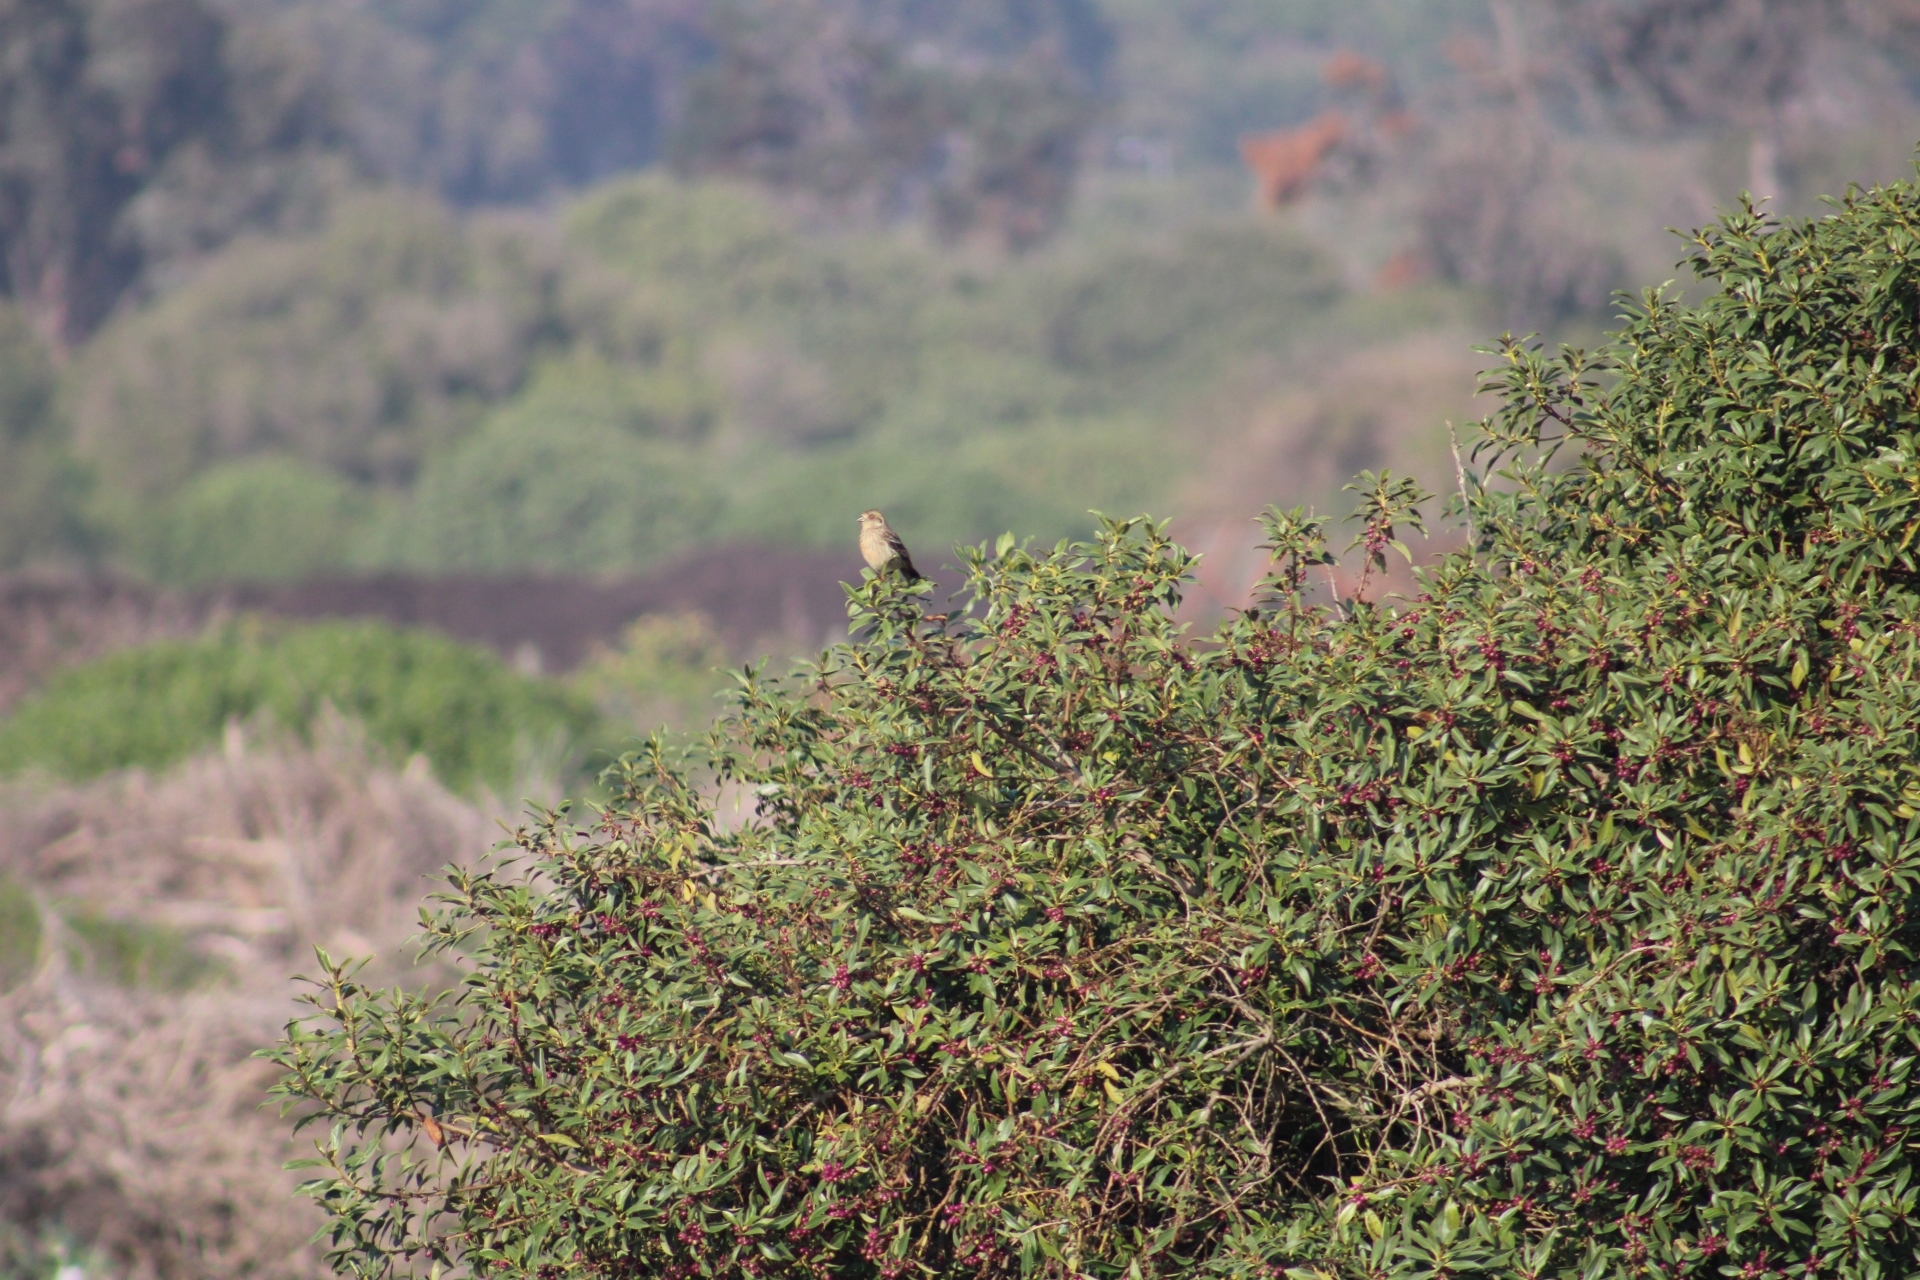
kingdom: Animalia
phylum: Chordata
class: Aves
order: Passeriformes
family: Cotingidae
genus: Phytotoma
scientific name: Phytotoma rara
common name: Rufous-tailed plantcutter
